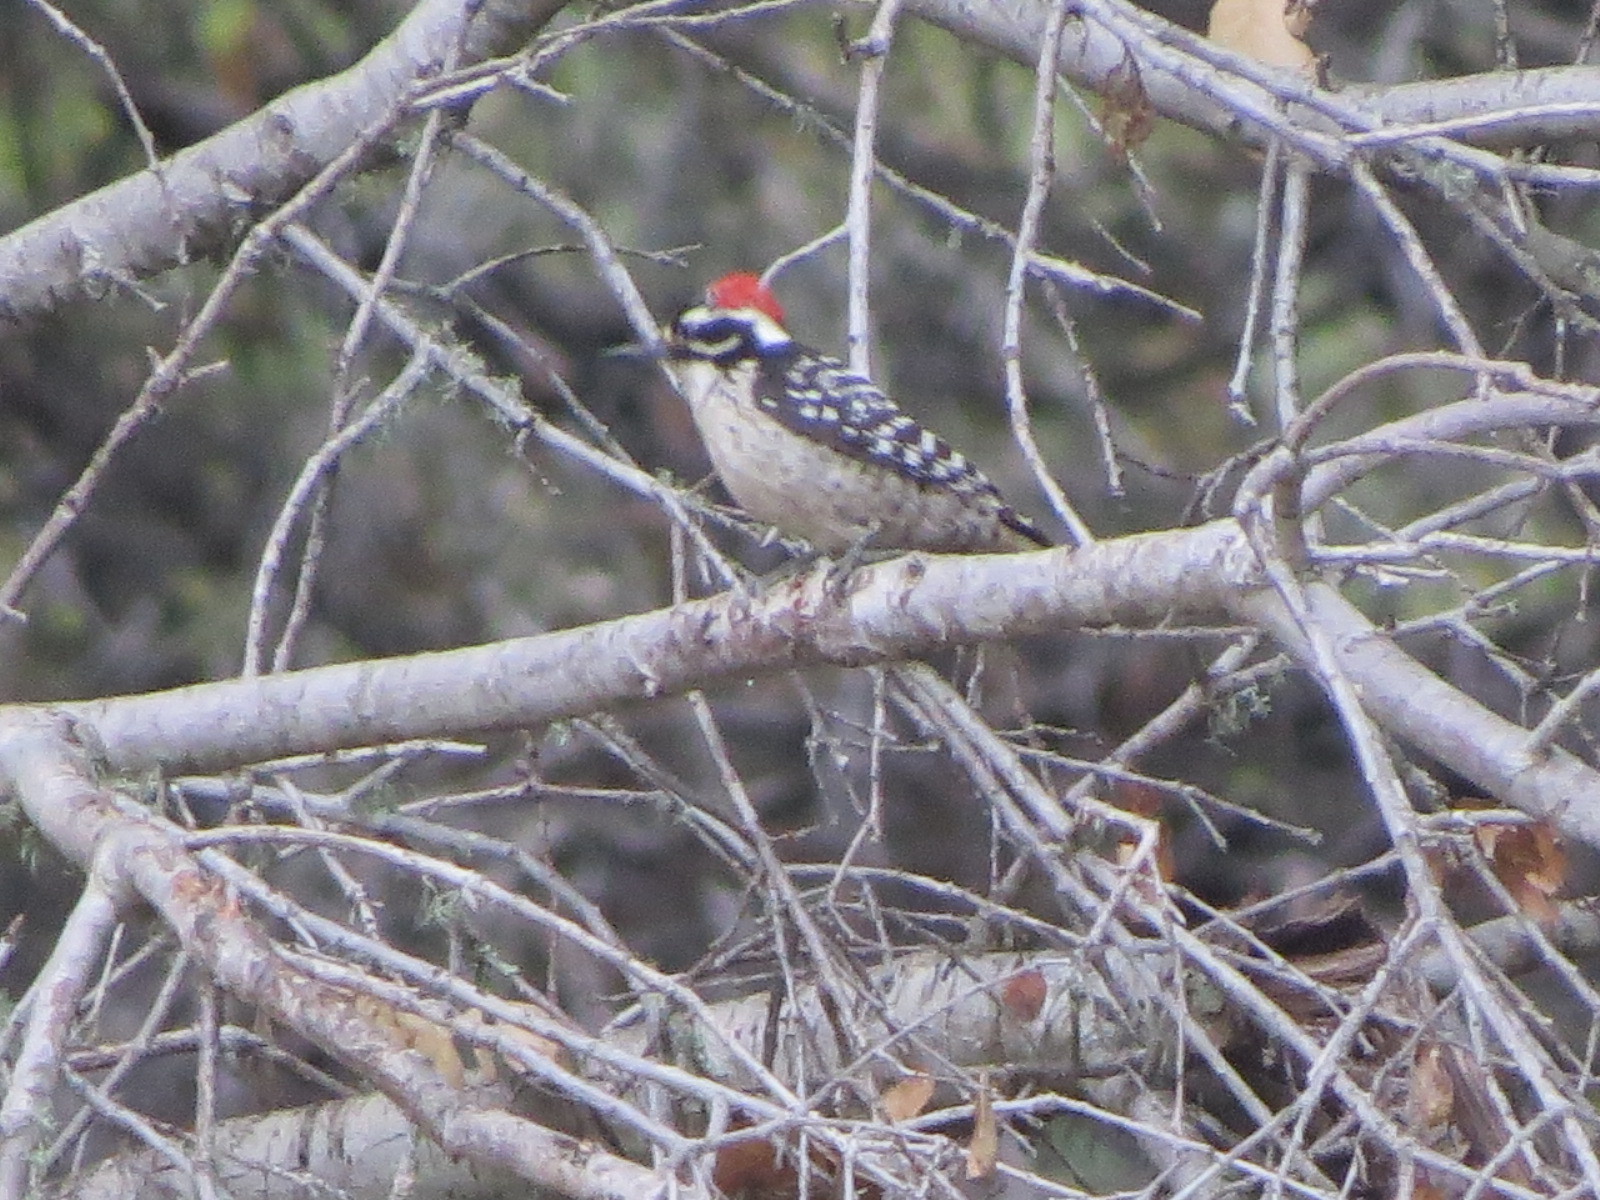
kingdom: Animalia
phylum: Chordata
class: Aves
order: Piciformes
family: Picidae
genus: Dryobates
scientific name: Dryobates nuttallii
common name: Nuttall's woodpecker
